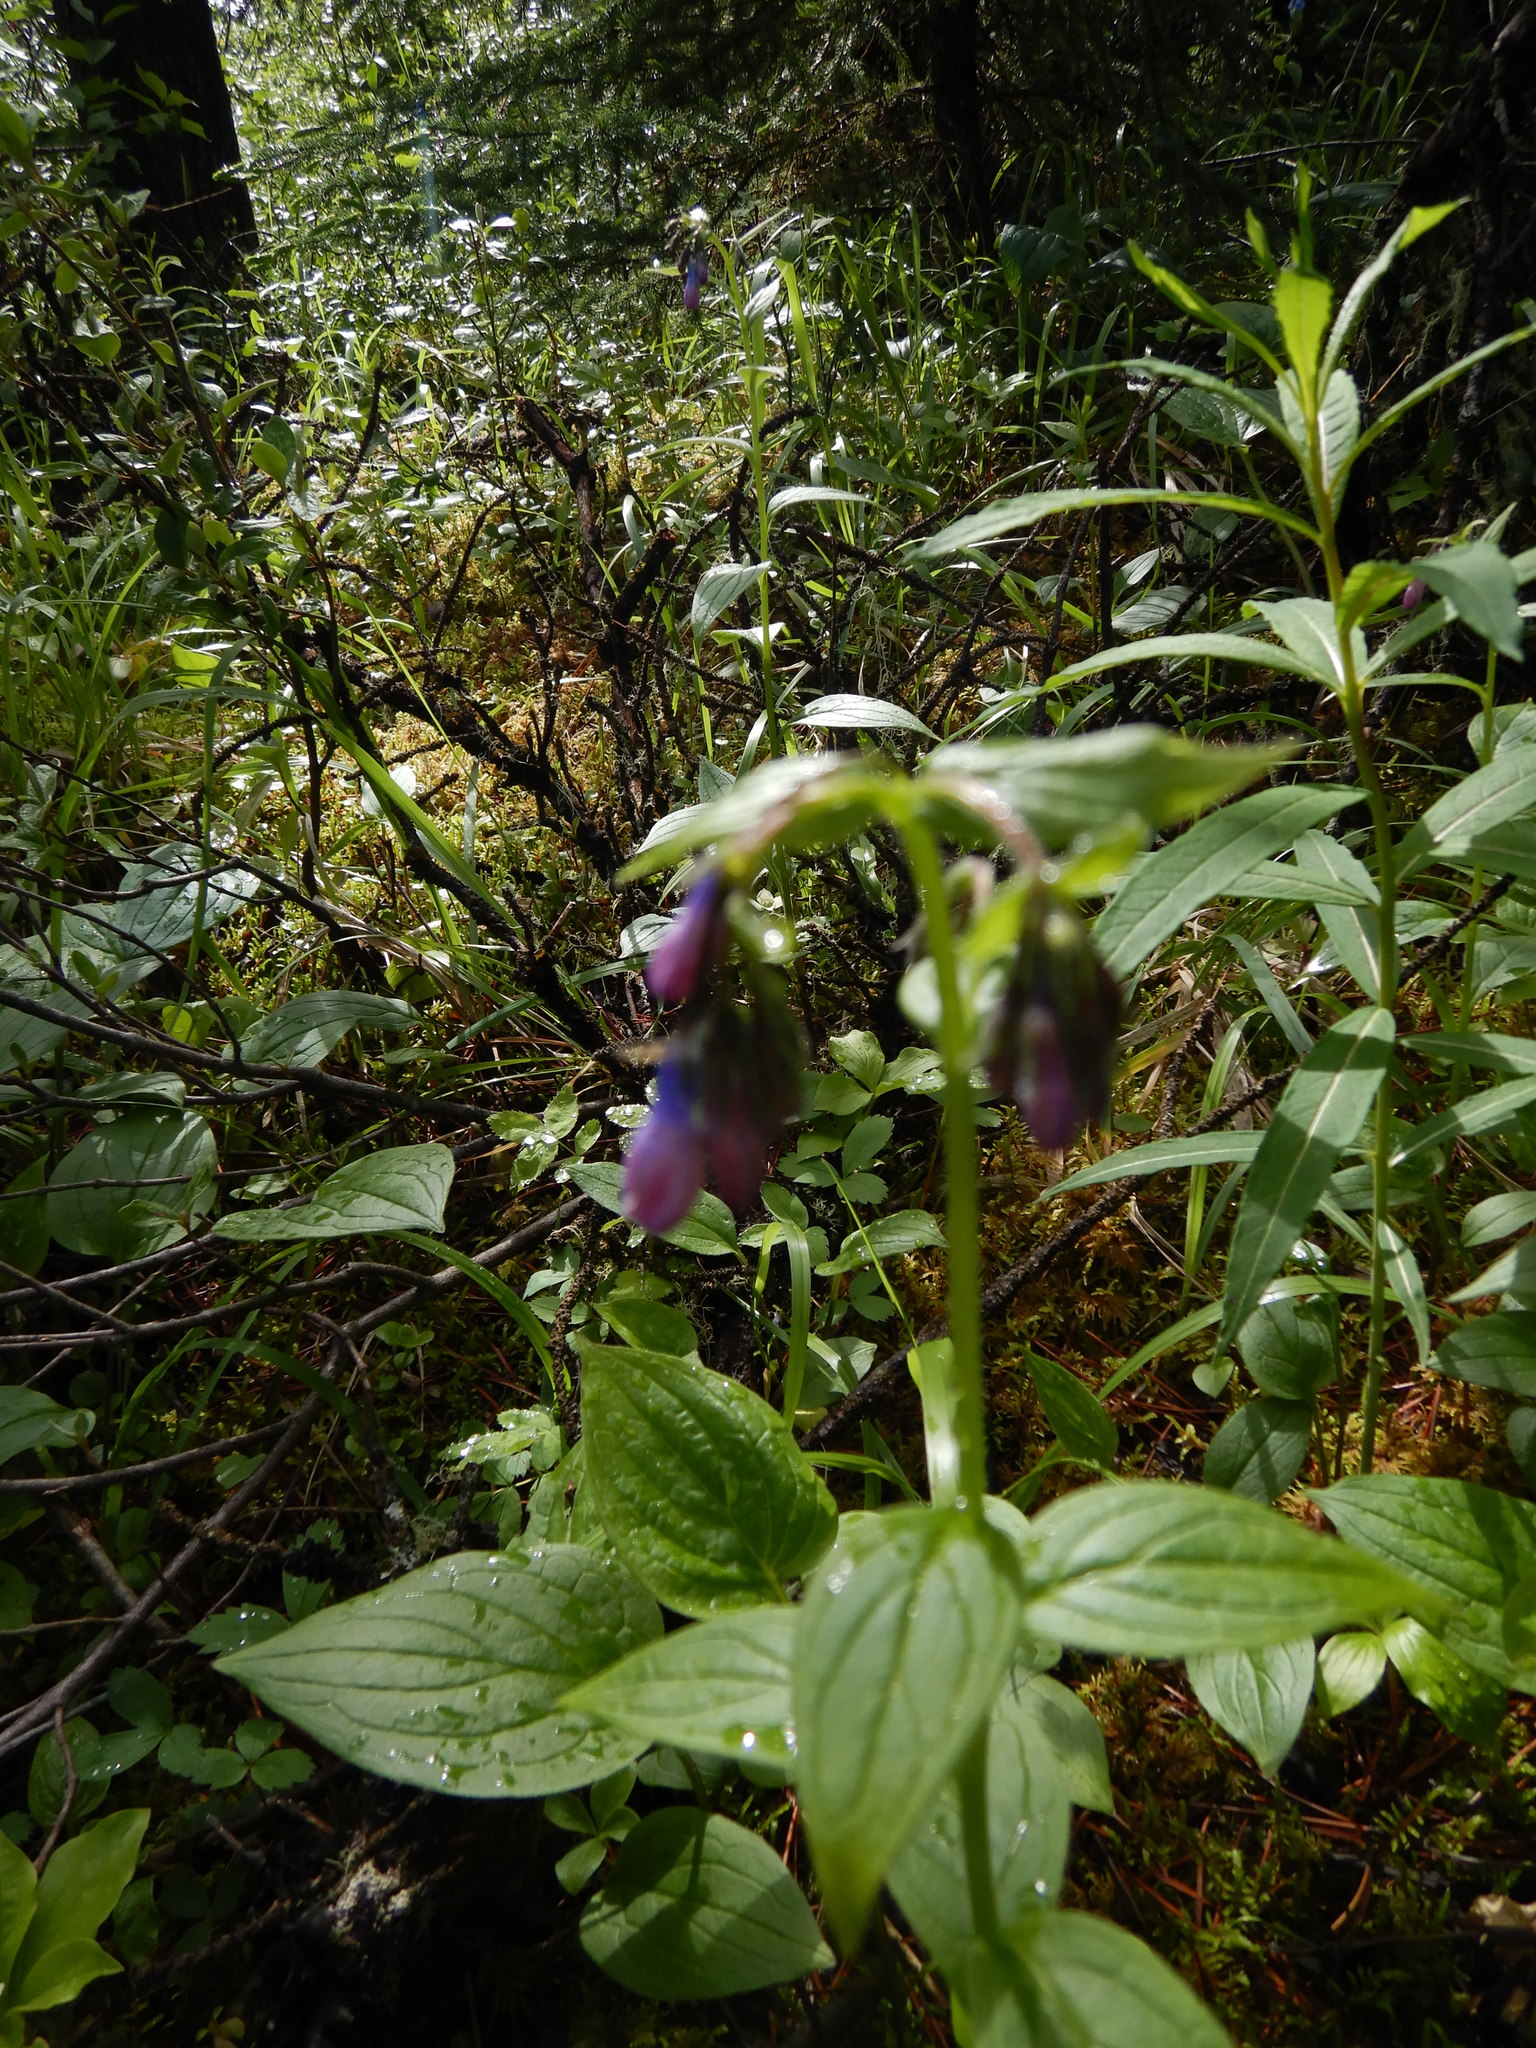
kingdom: Plantae
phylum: Tracheophyta
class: Magnoliopsida
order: Boraginales
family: Boraginaceae
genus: Mertensia
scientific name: Mertensia paniculata
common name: Panicled bluebells
